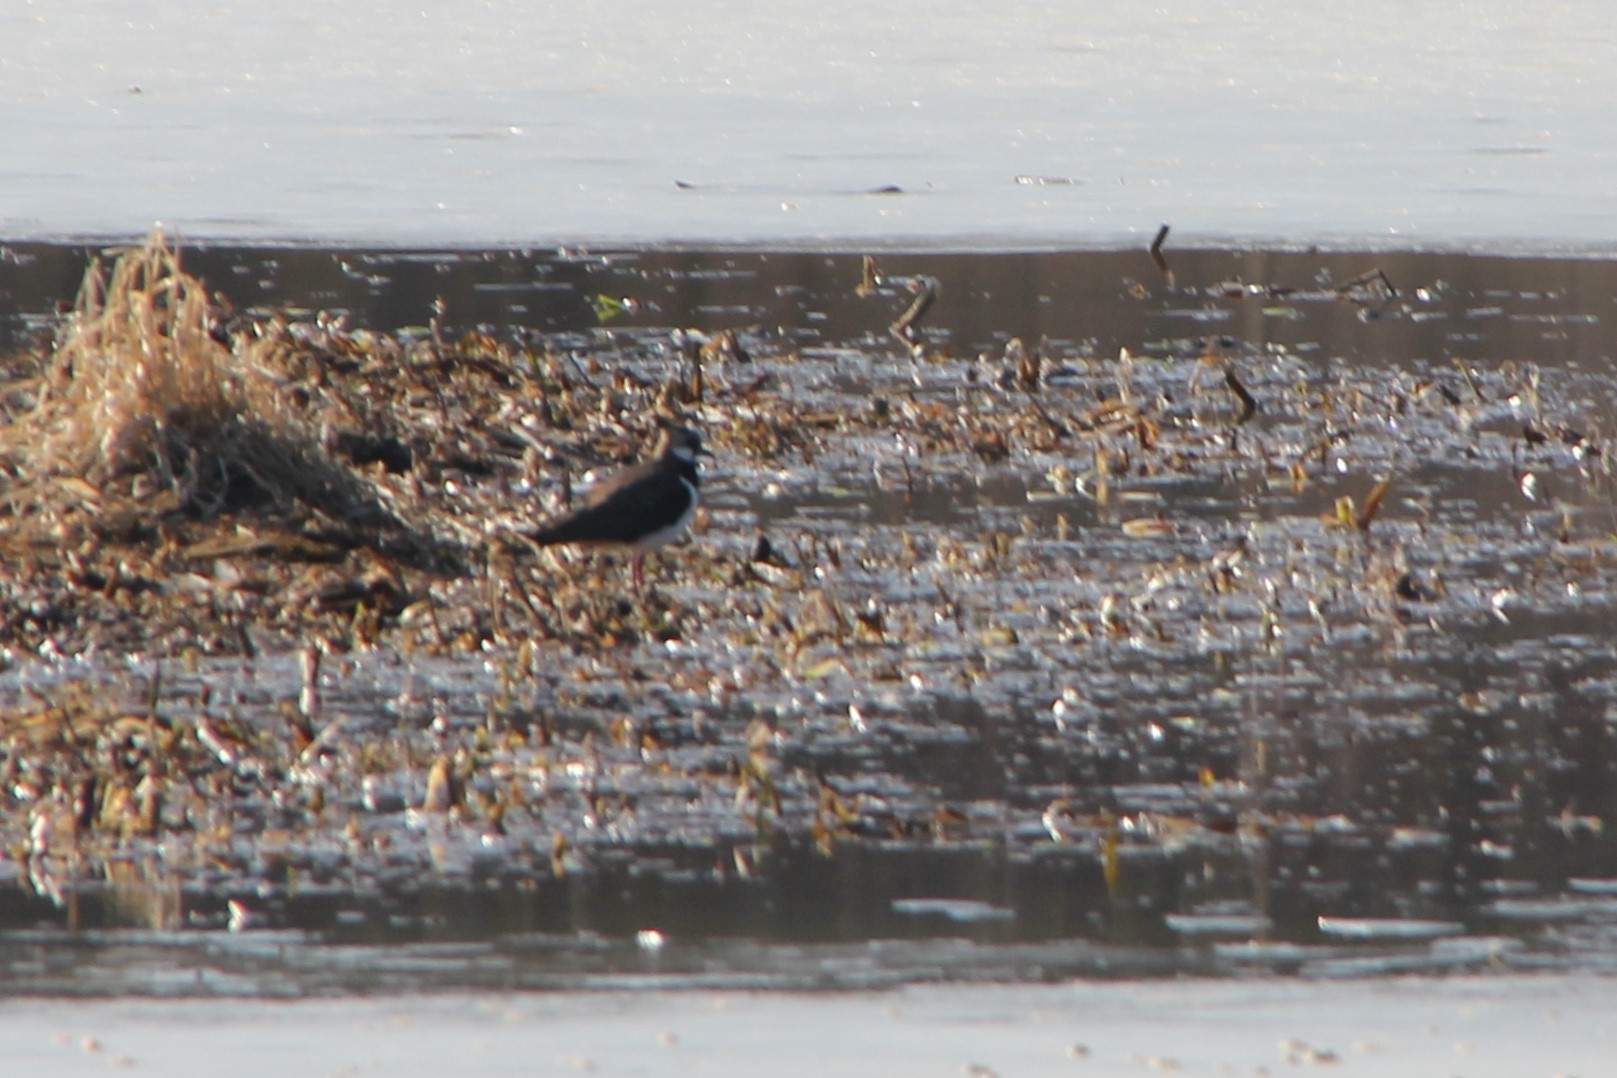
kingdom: Animalia
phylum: Chordata
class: Aves
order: Charadriiformes
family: Charadriidae
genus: Vanellus
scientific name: Vanellus vanellus
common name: Northern lapwing
